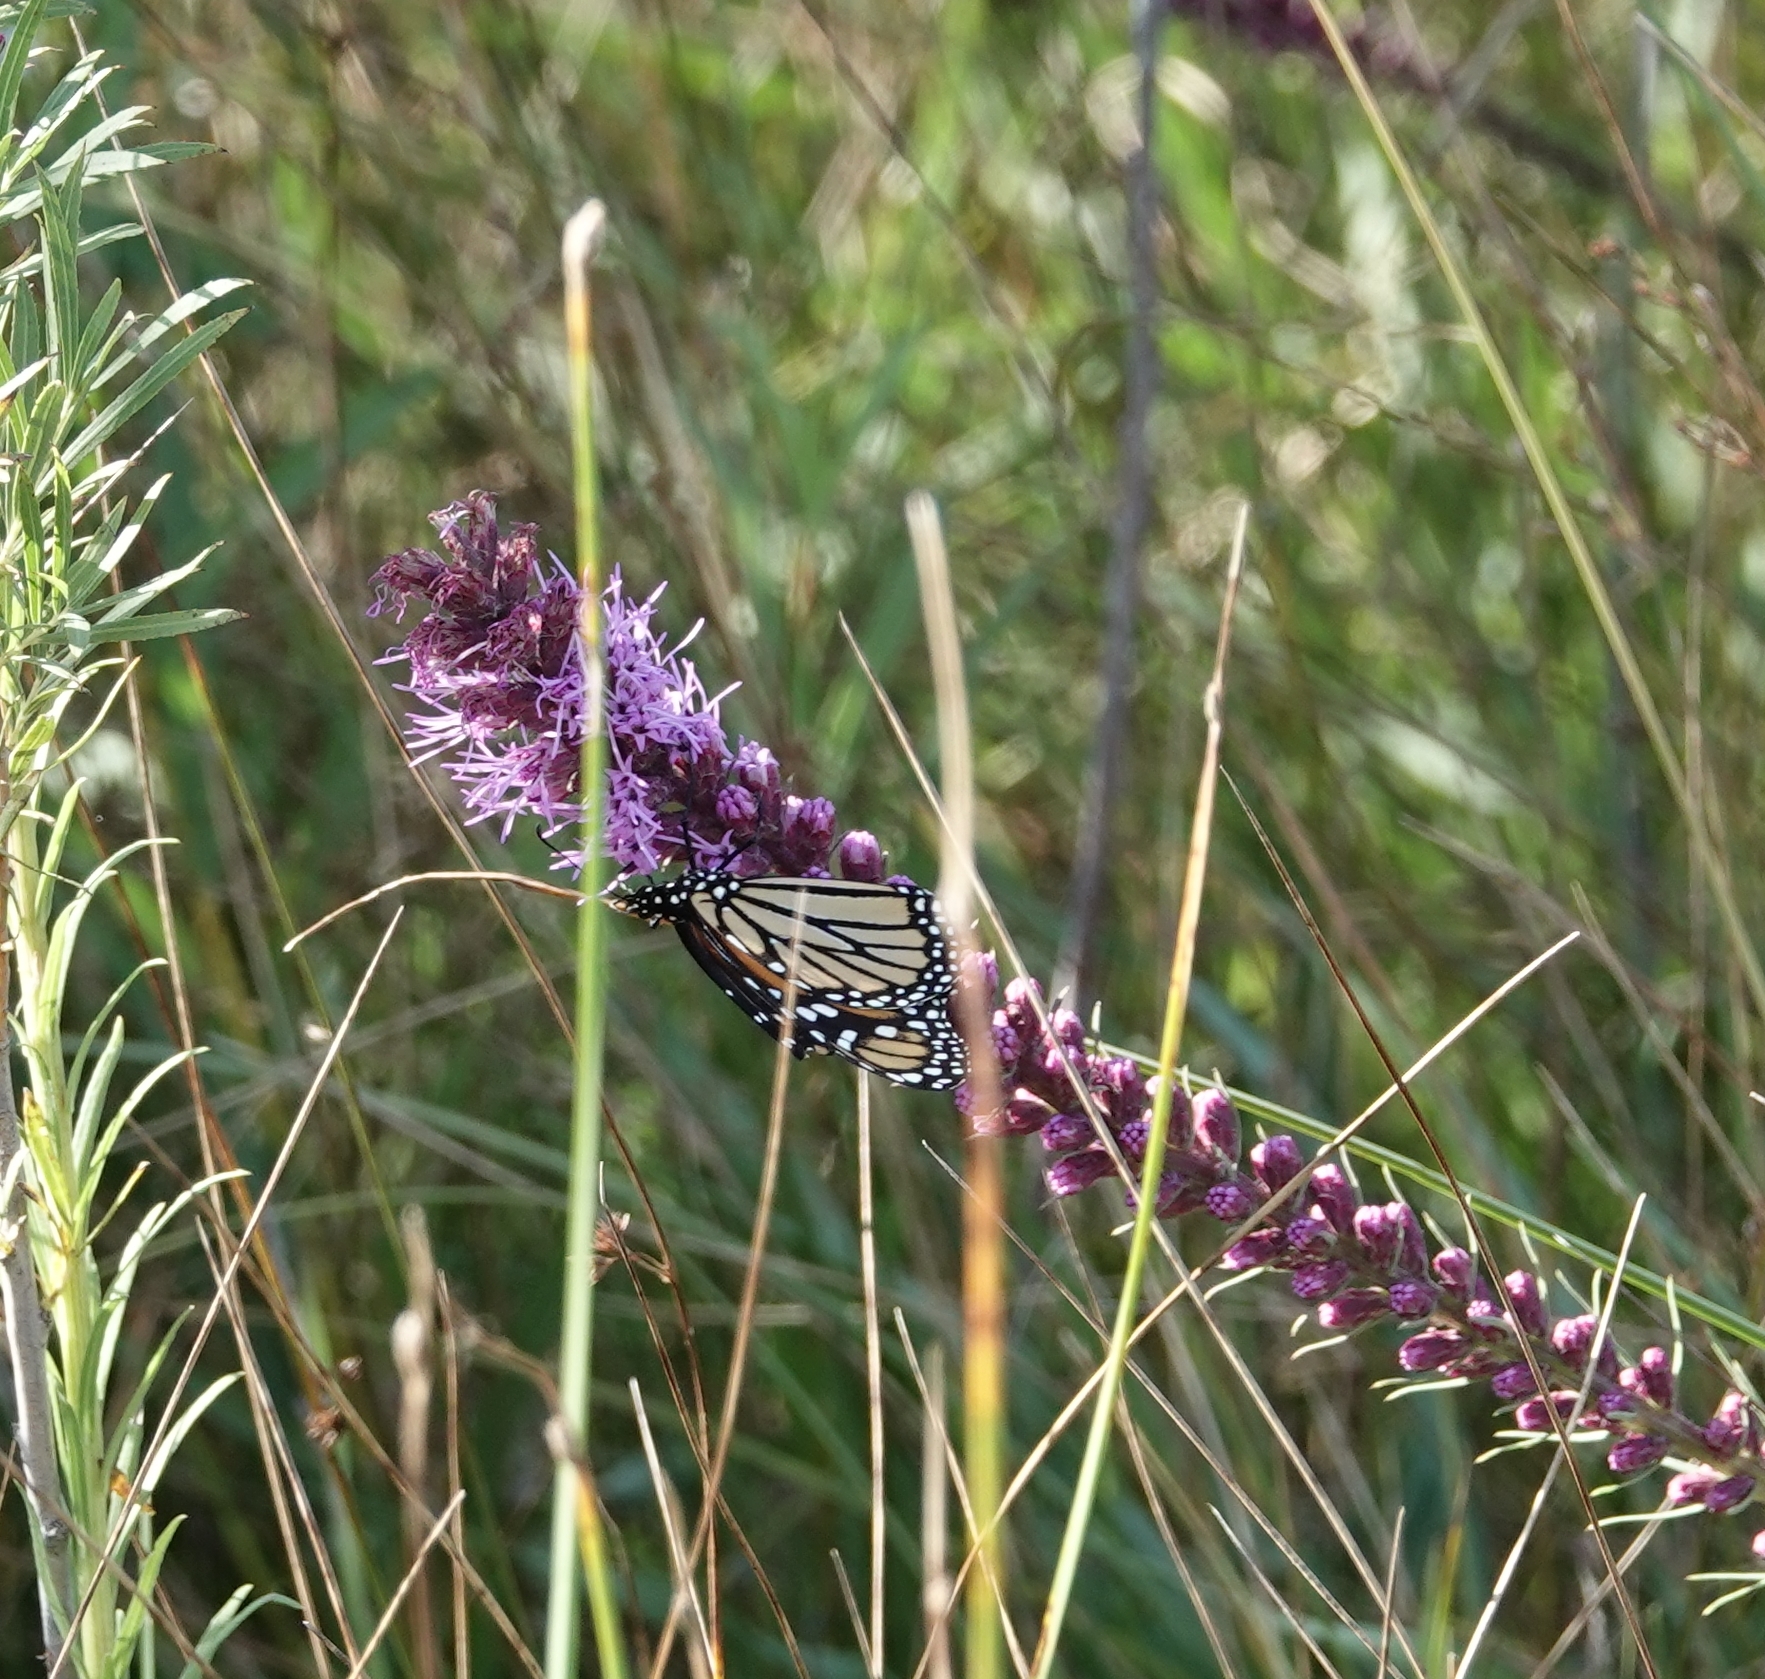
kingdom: Animalia
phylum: Arthropoda
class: Insecta
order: Lepidoptera
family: Nymphalidae
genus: Danaus
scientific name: Danaus plexippus
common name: Monarch
